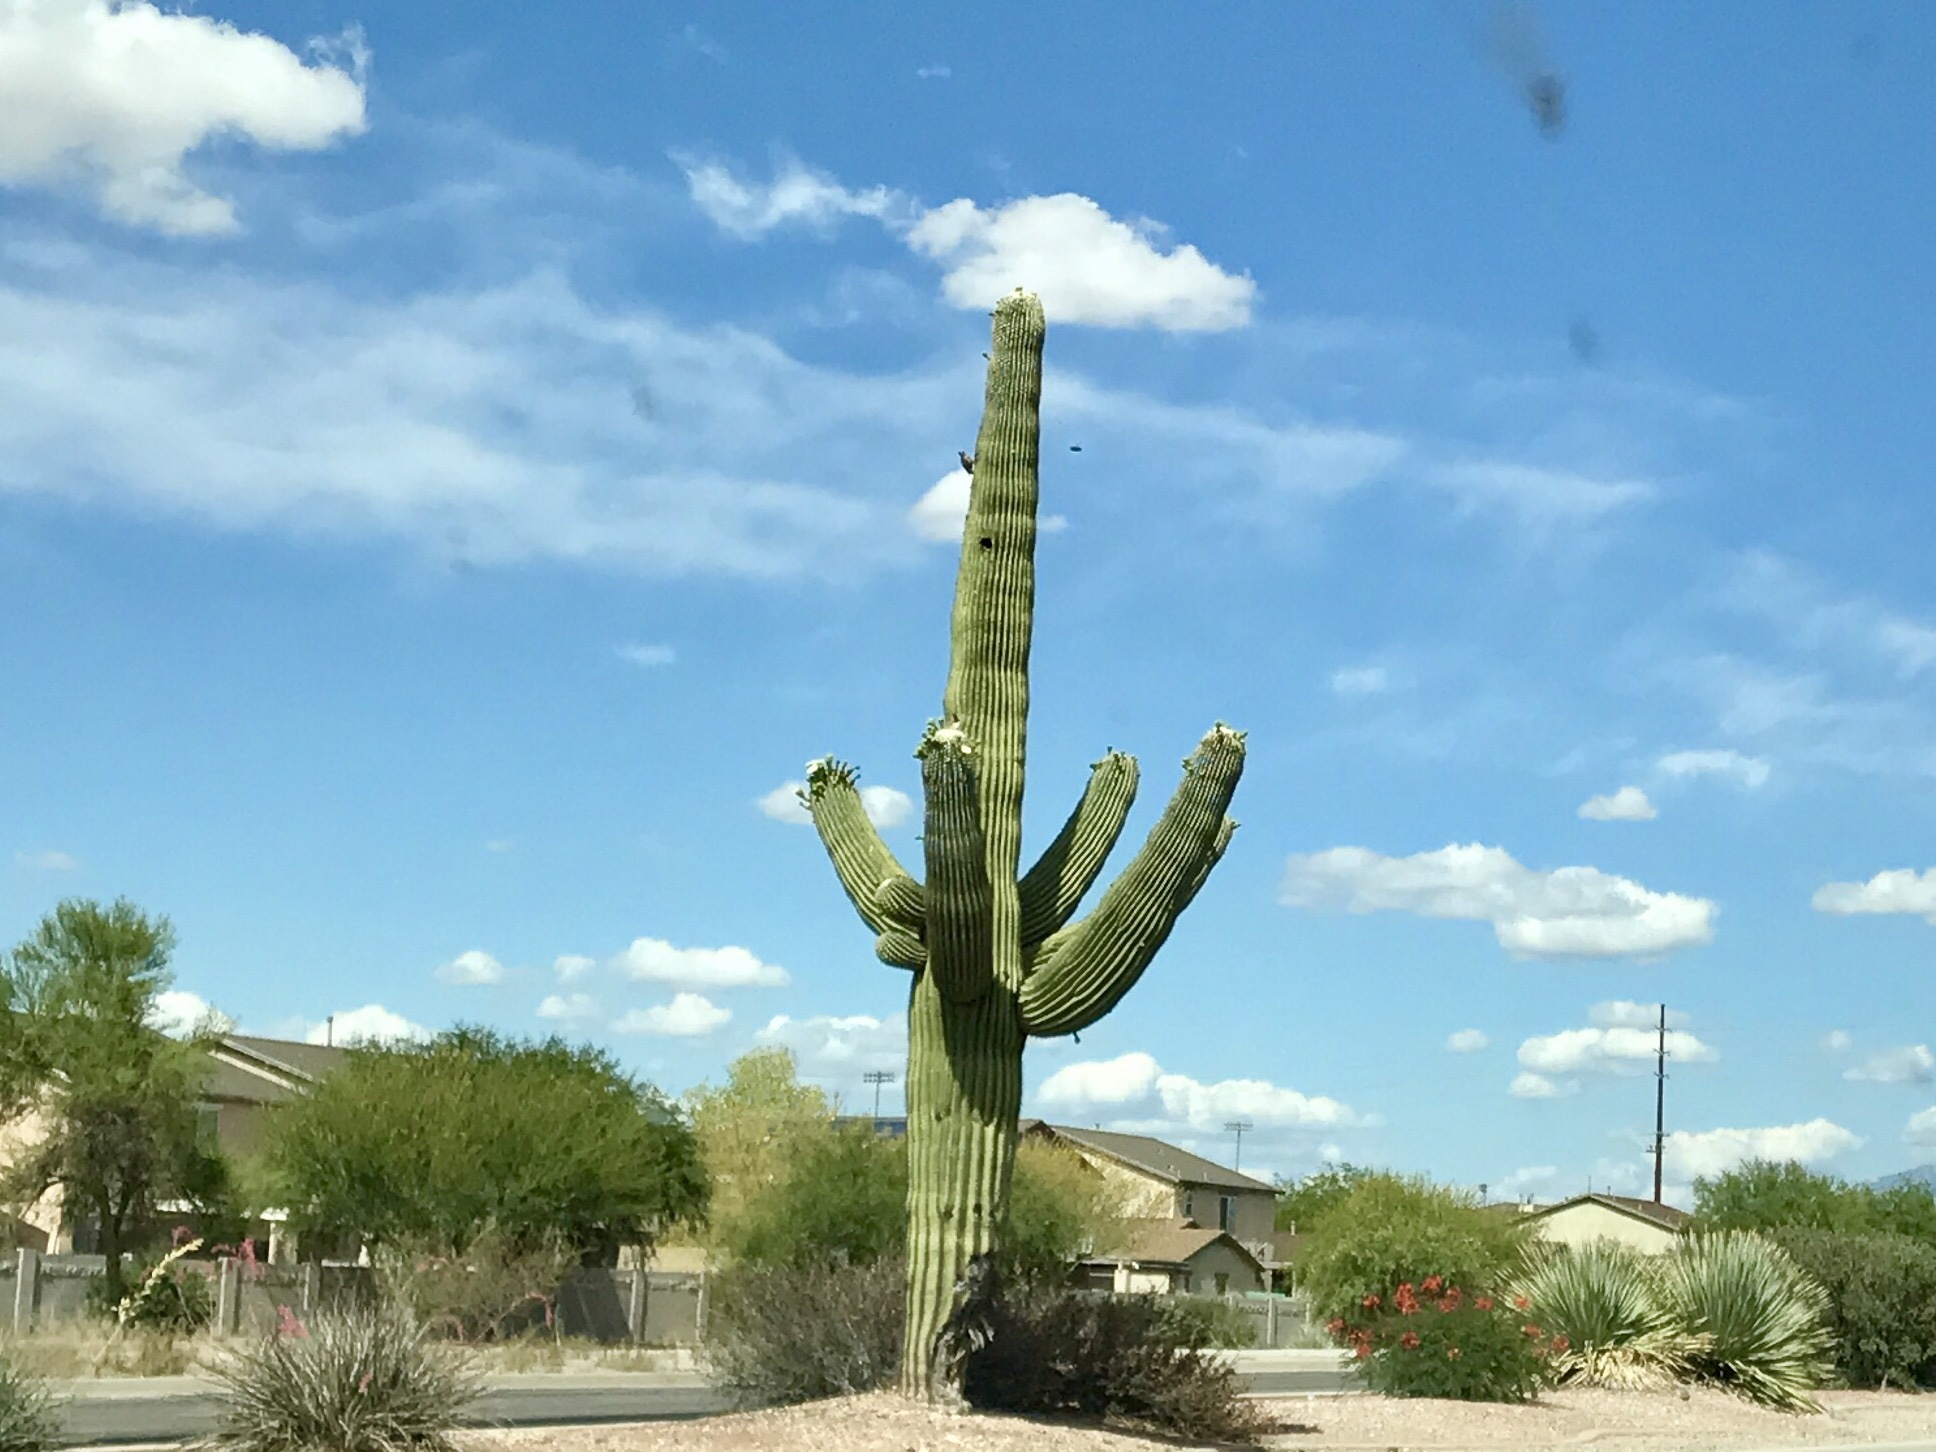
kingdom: Plantae
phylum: Tracheophyta
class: Magnoliopsida
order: Caryophyllales
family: Cactaceae
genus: Carnegiea
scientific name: Carnegiea gigantea
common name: Saguaro
